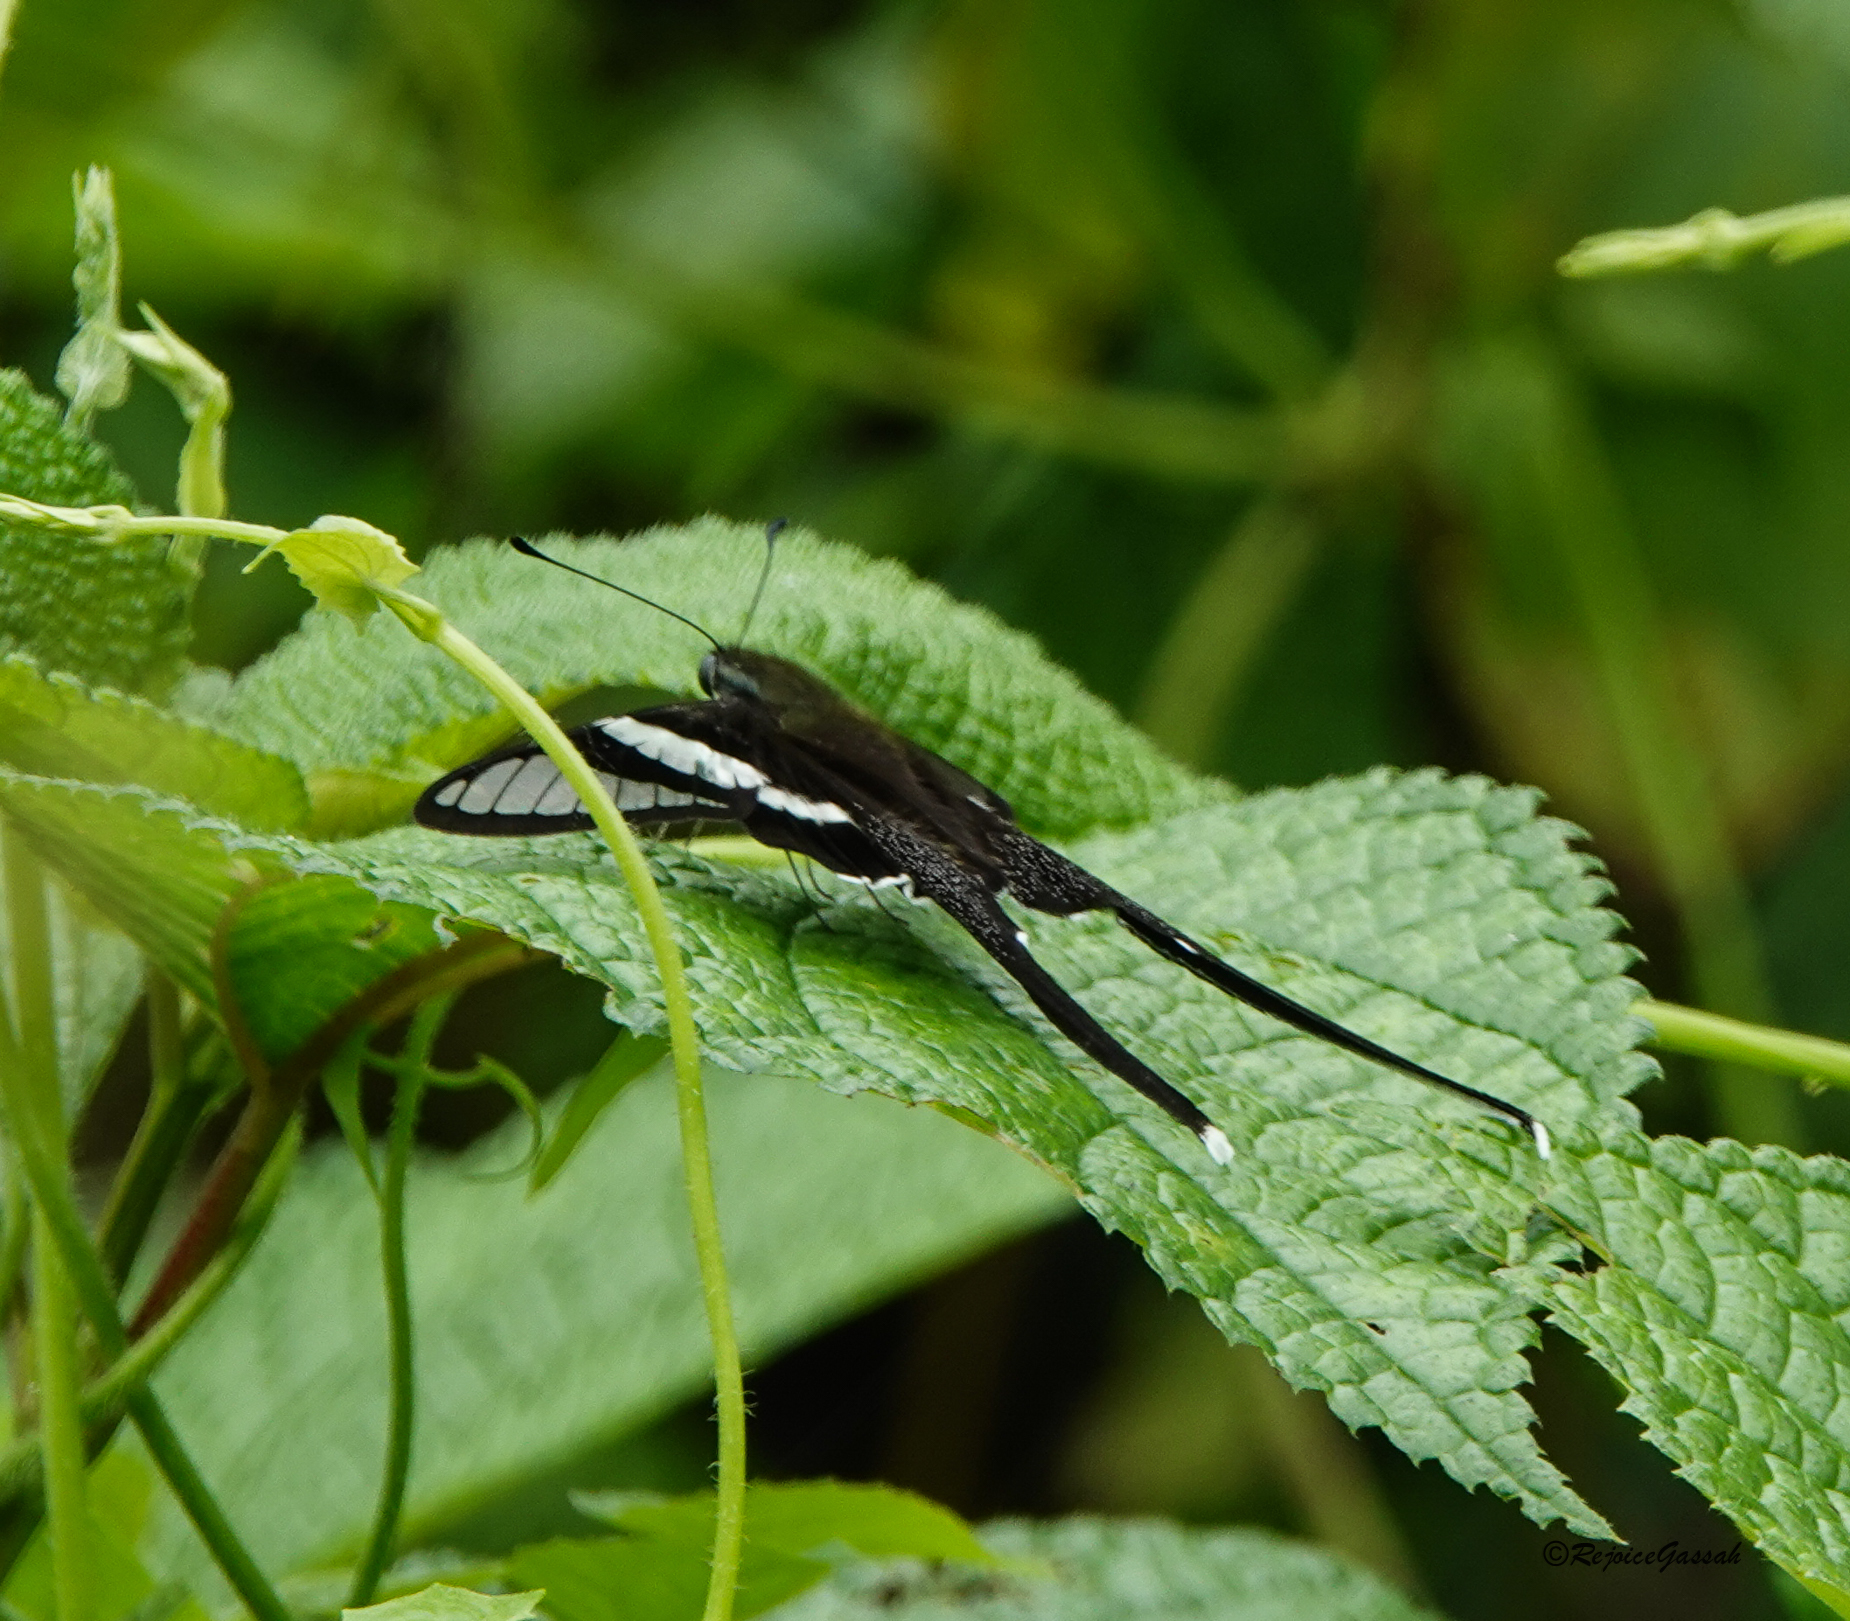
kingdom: Animalia
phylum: Arthropoda
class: Insecta
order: Lepidoptera
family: Papilionidae
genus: Lamproptera
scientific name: Lamproptera curius
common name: White dragontail
